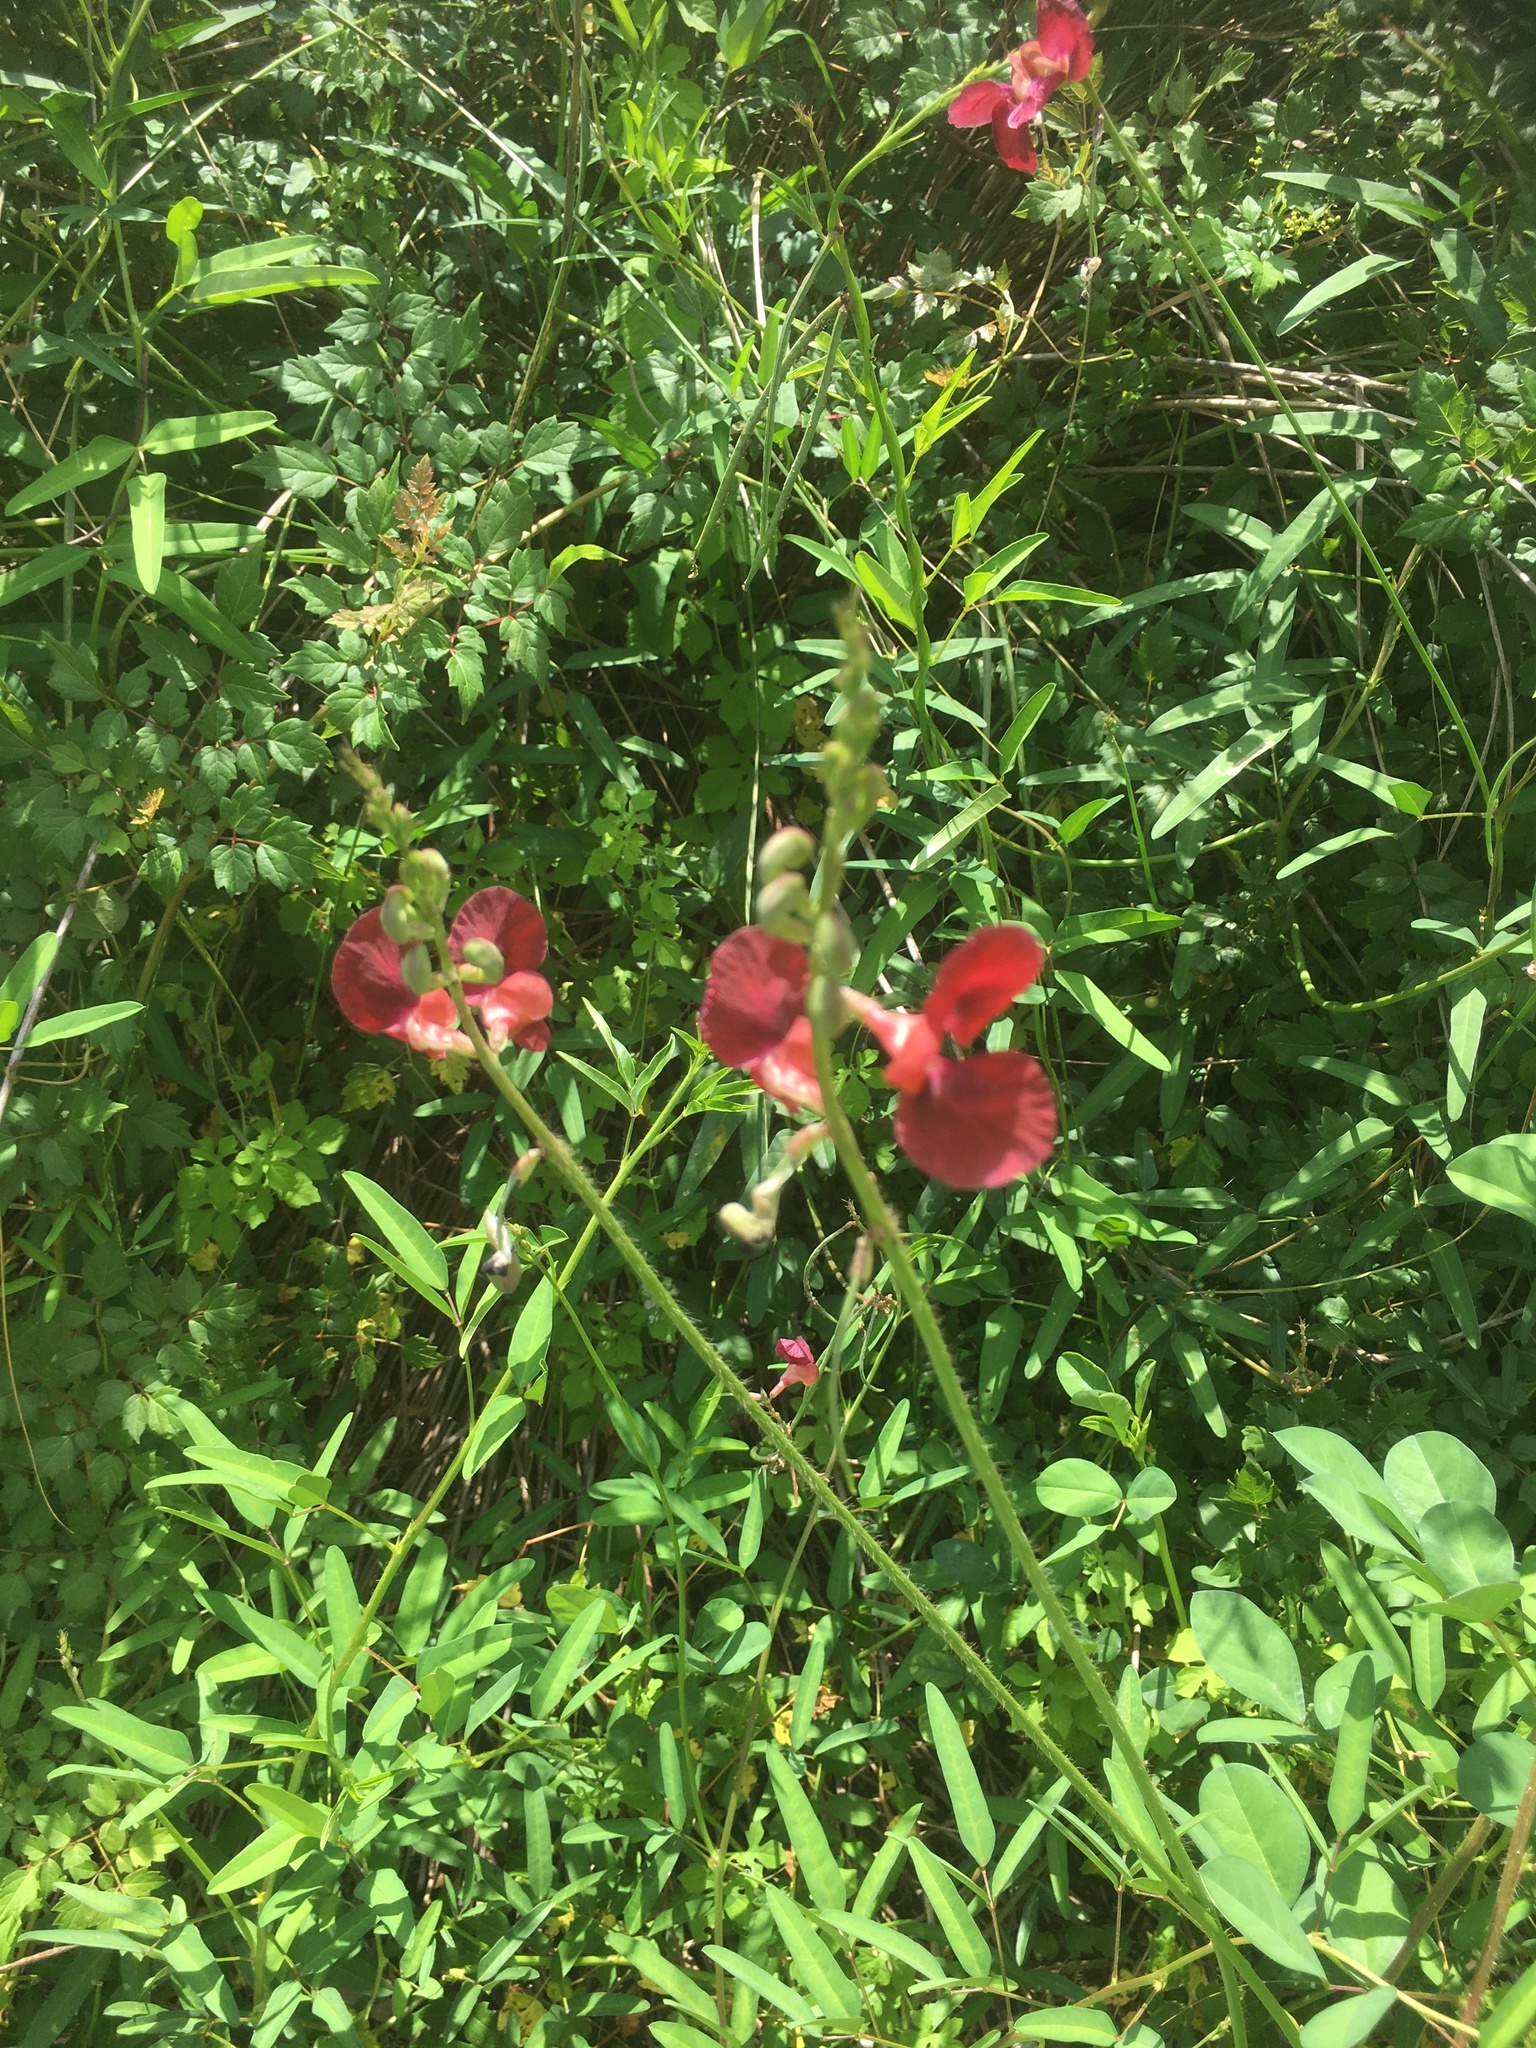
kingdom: Plantae
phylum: Tracheophyta
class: Magnoliopsida
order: Fabales
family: Fabaceae
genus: Macroptilium
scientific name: Macroptilium lathyroides
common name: Wild bushbean
